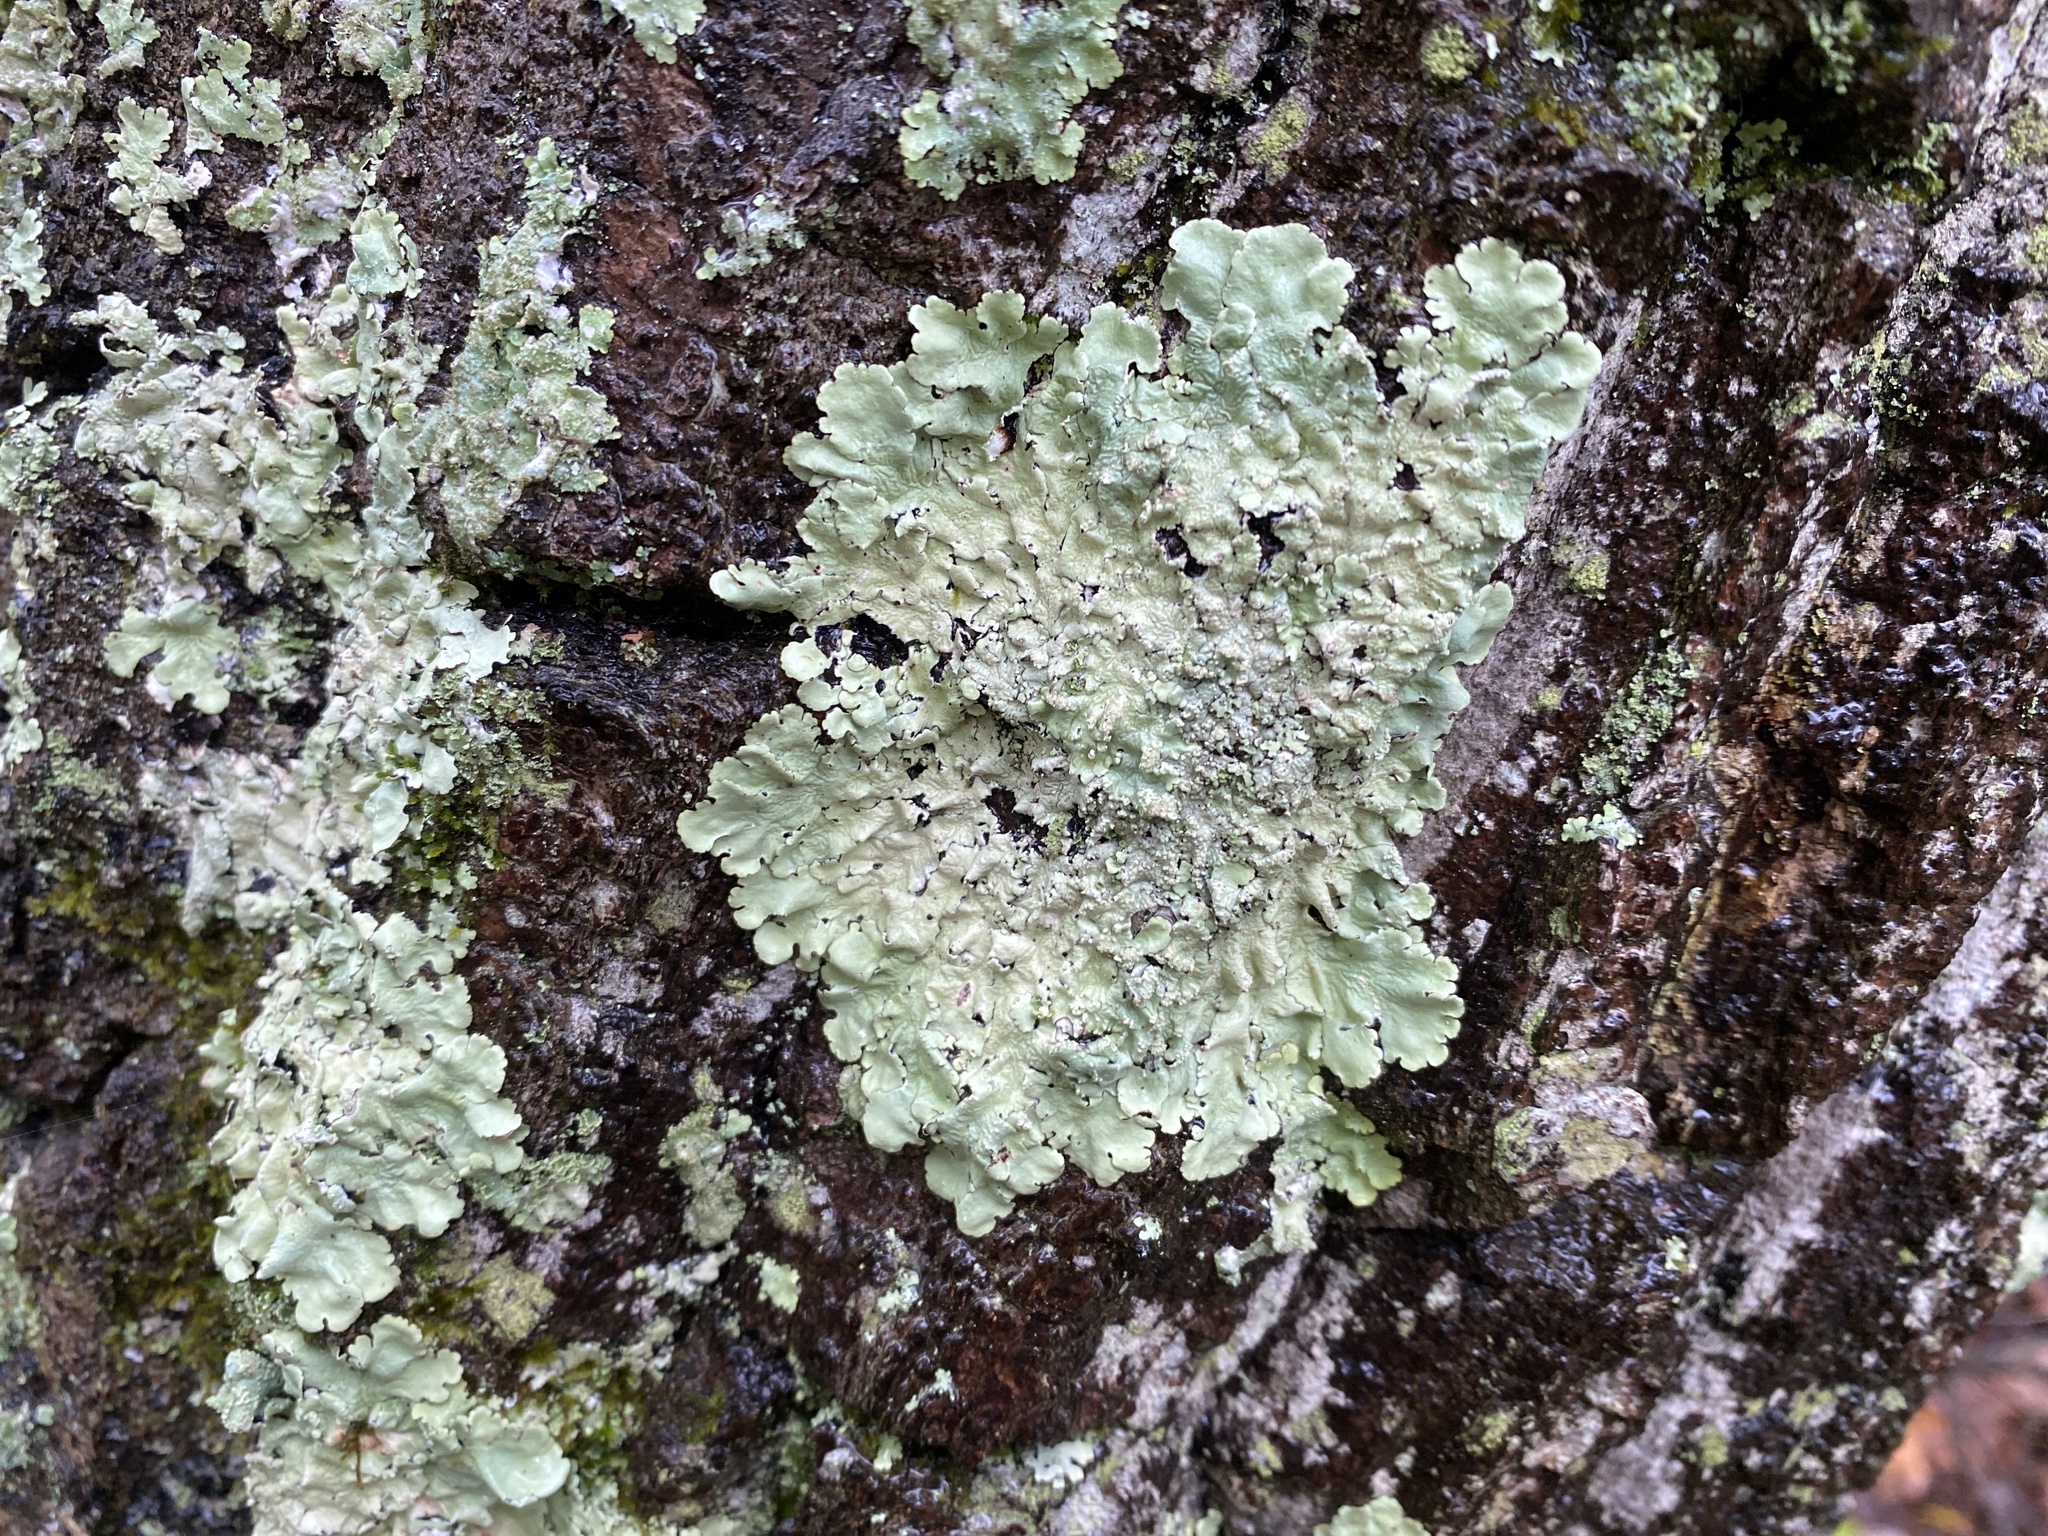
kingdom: Fungi
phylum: Ascomycota
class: Lecanoromycetes
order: Lecanorales
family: Parmeliaceae
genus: Flavoparmelia
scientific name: Flavoparmelia caperata
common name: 40-mile per hour lichen
